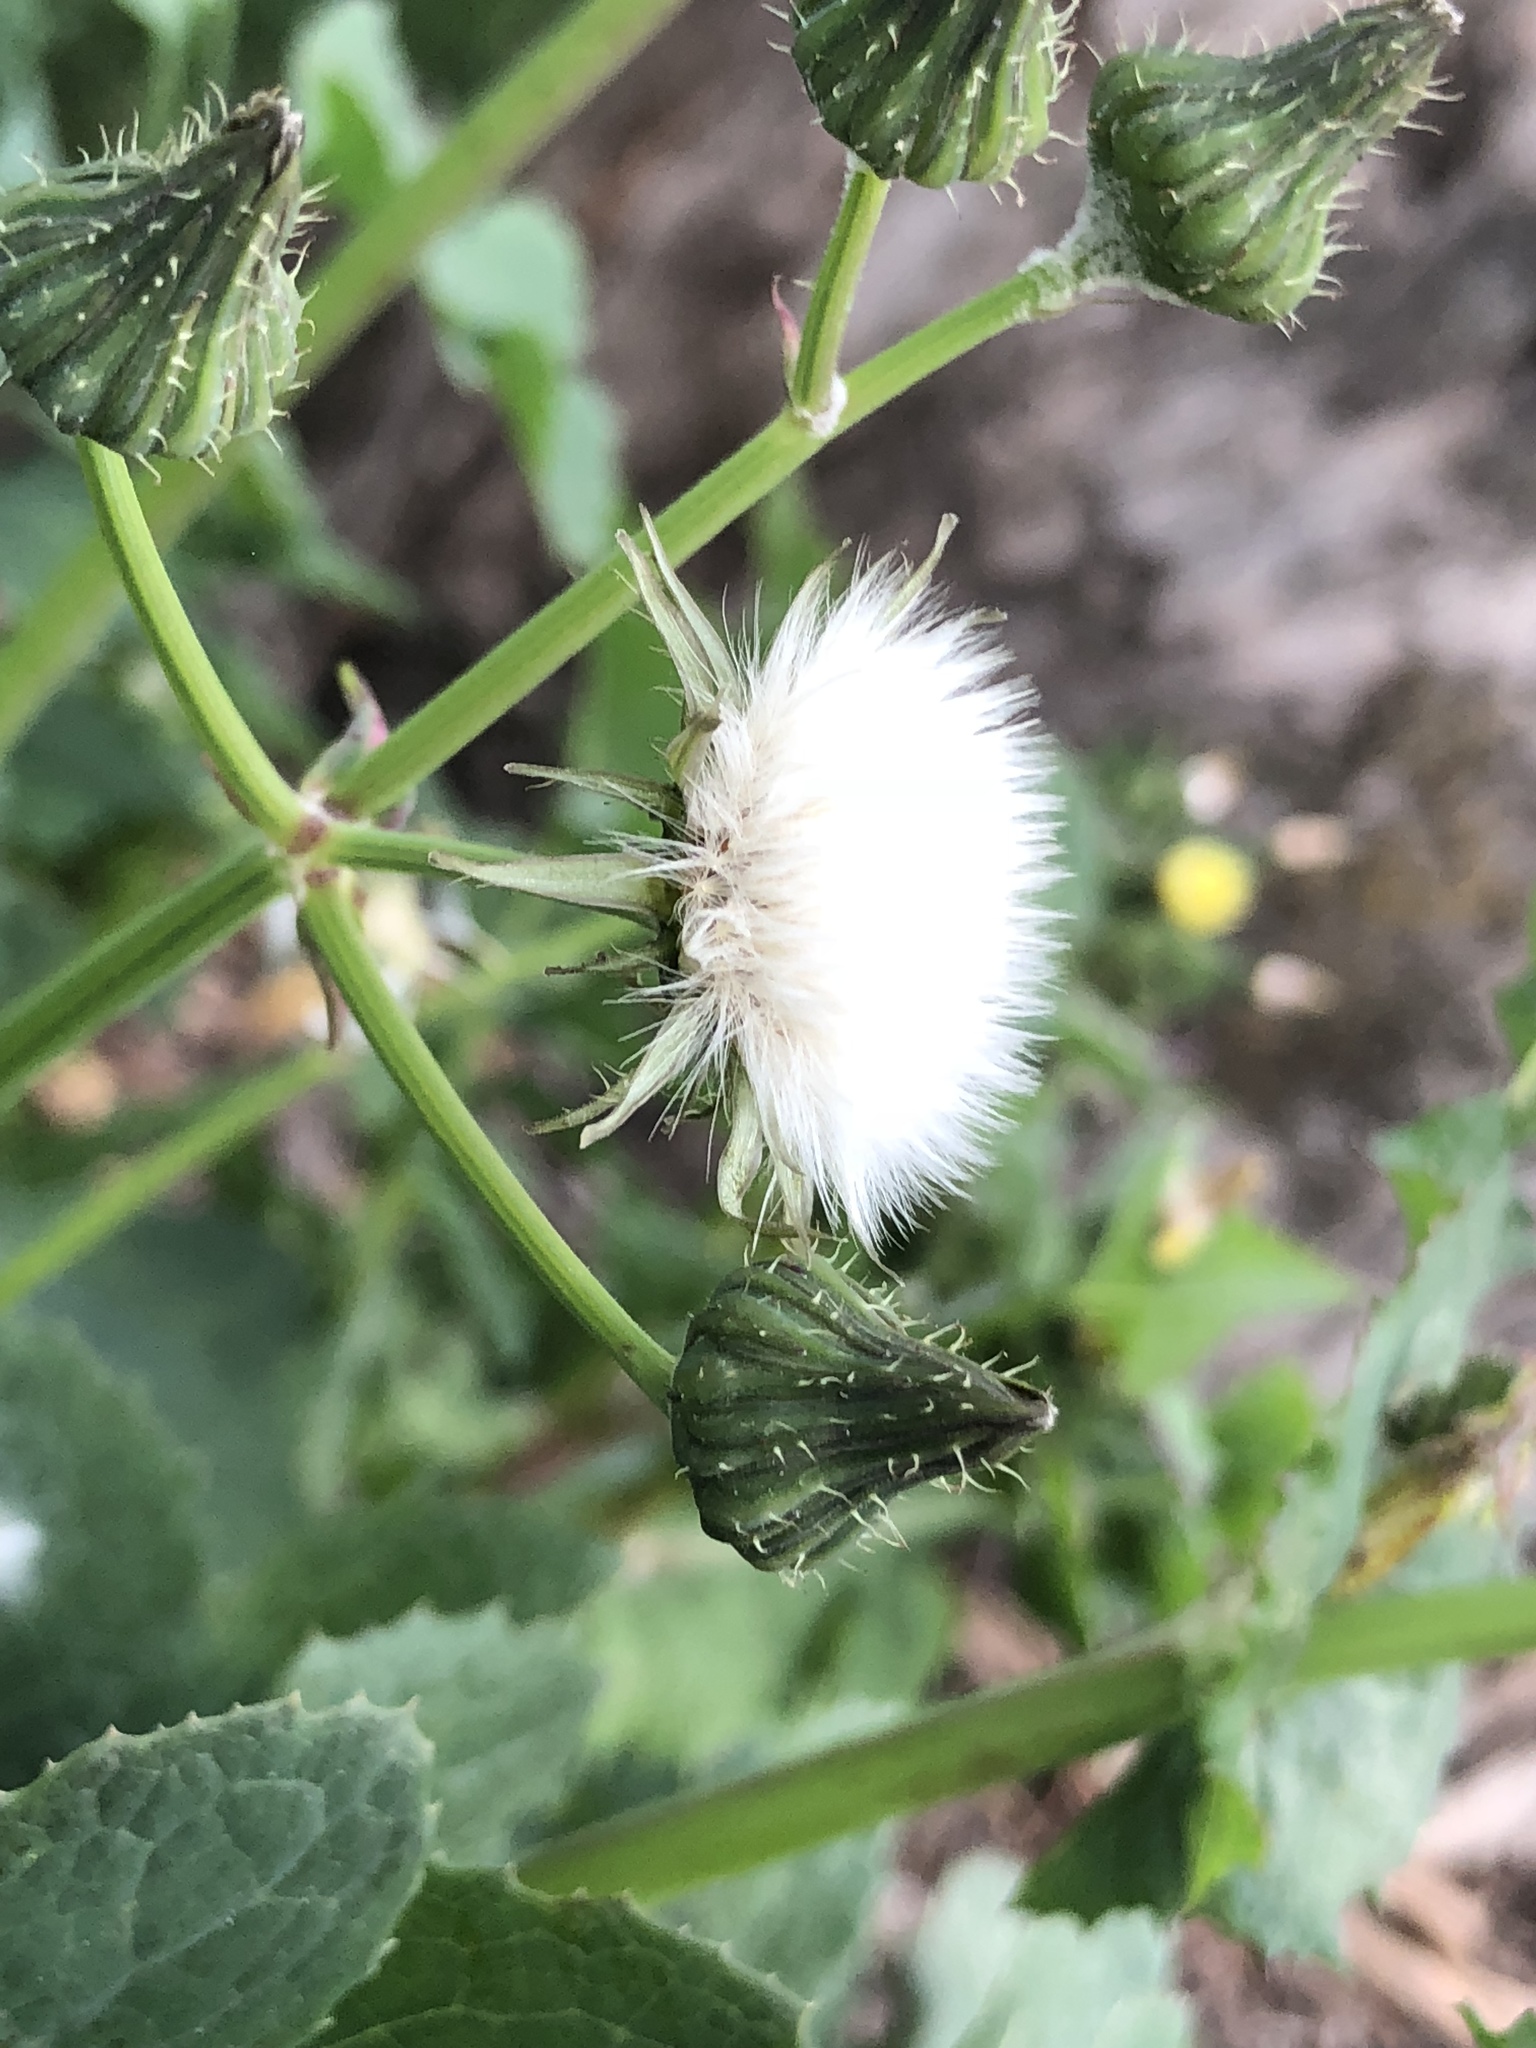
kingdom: Plantae
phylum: Tracheophyta
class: Magnoliopsida
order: Asterales
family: Asteraceae
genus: Sonchus
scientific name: Sonchus oleraceus
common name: Common sowthistle
